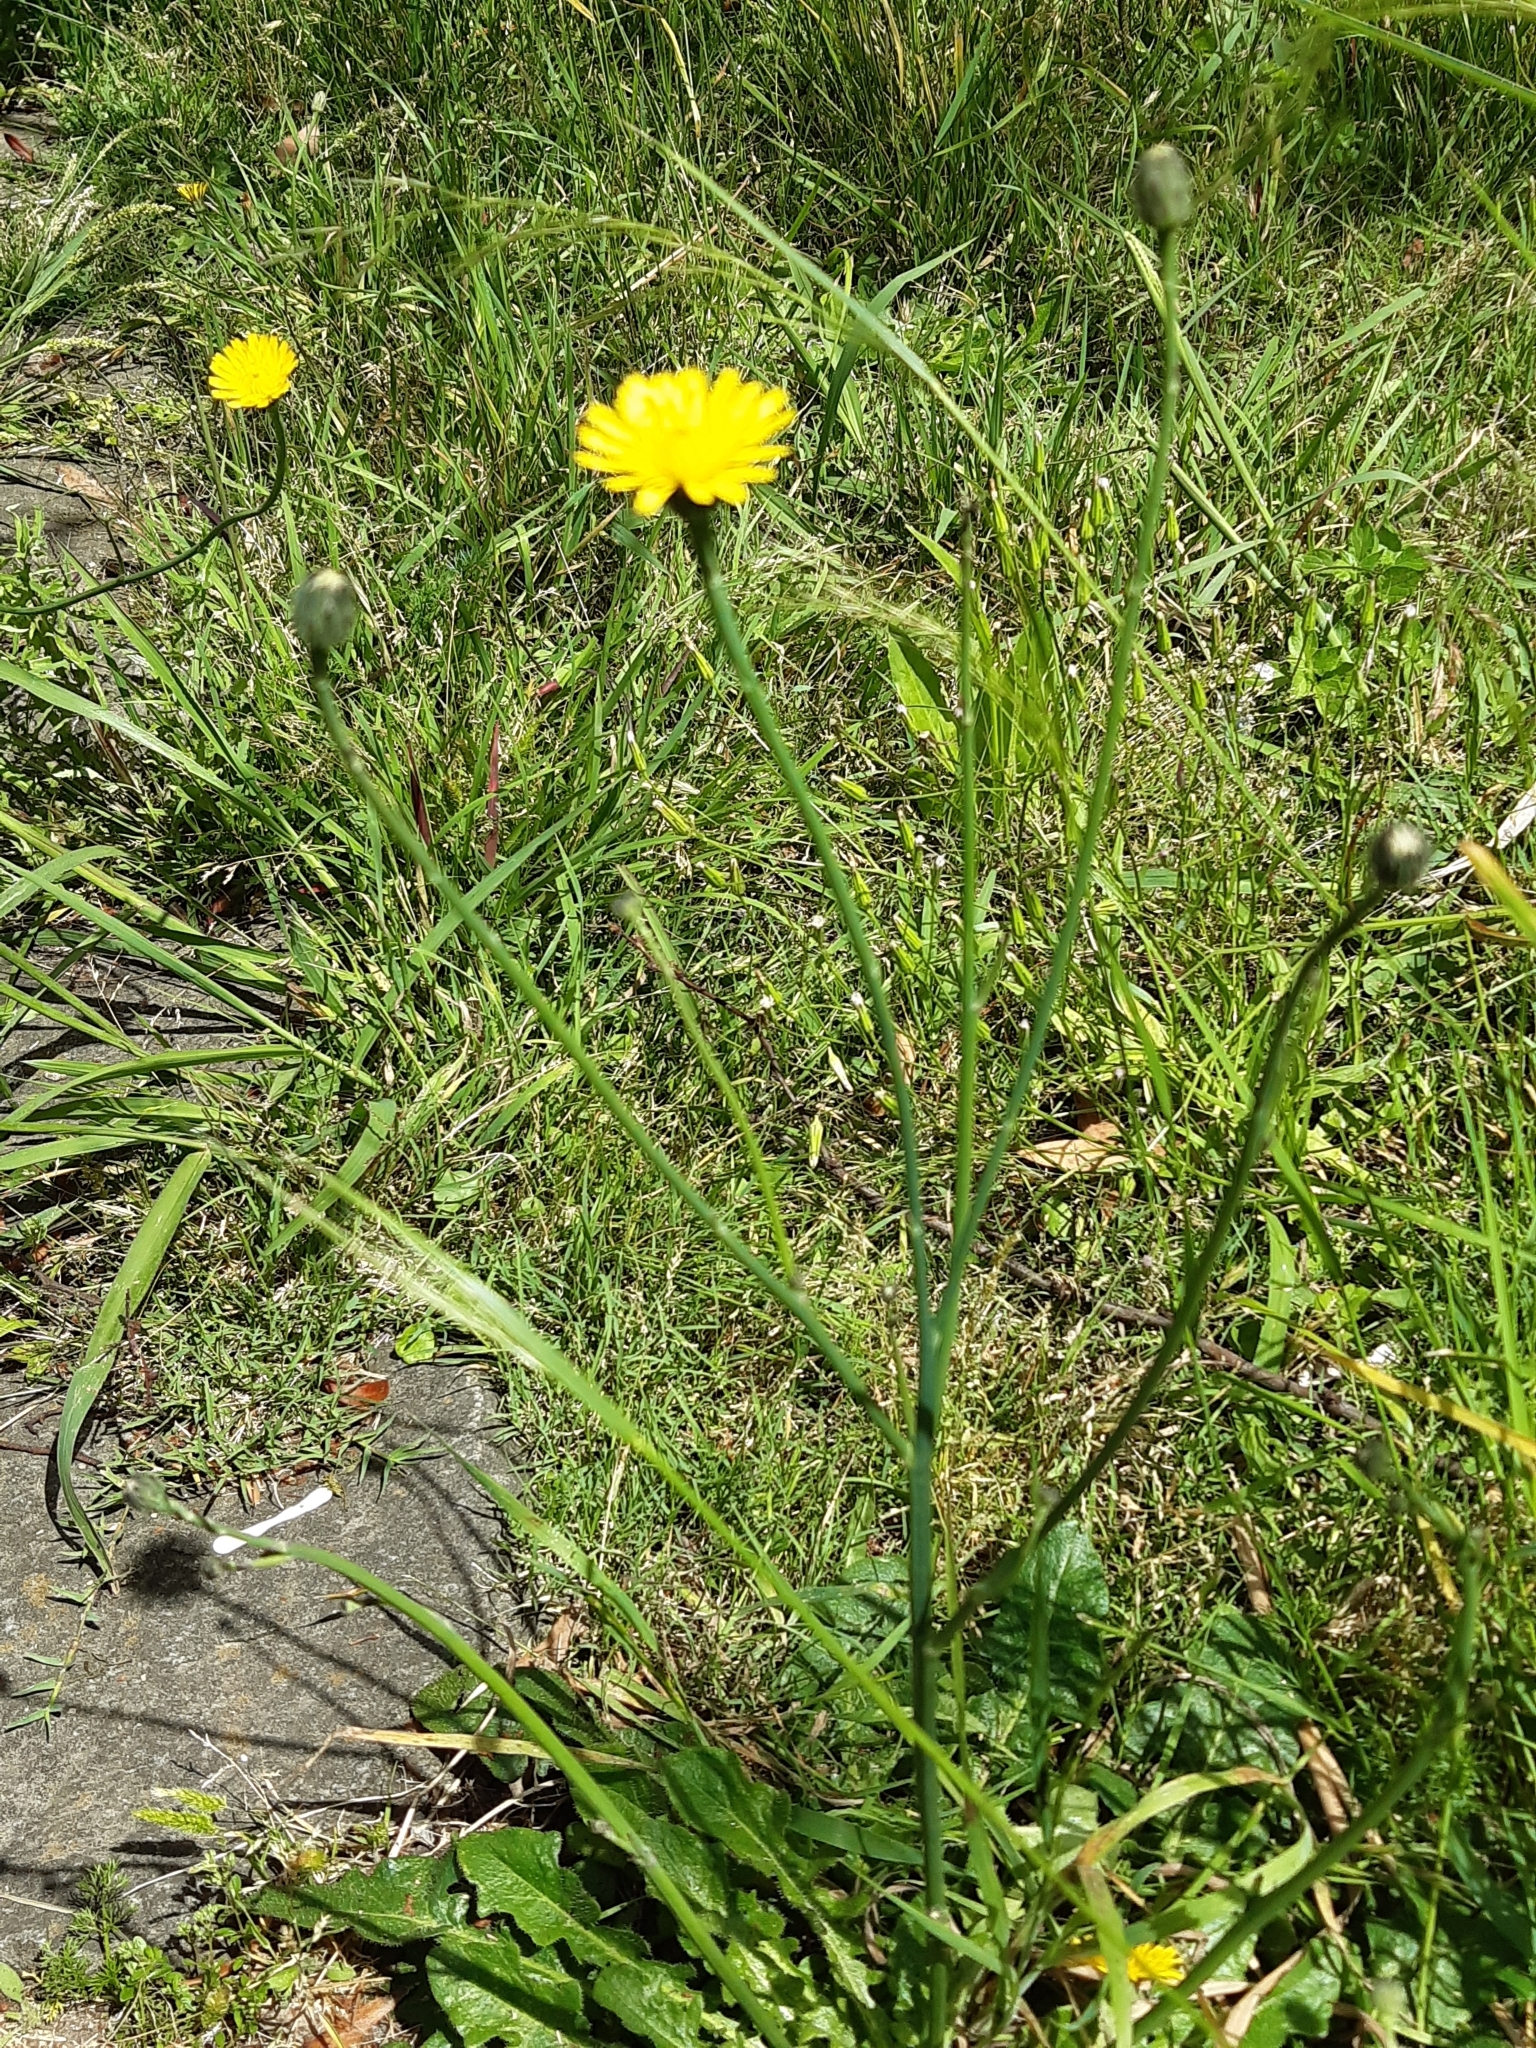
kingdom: Plantae
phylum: Tracheophyta
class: Magnoliopsida
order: Asterales
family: Asteraceae
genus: Hypochaeris
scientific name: Hypochaeris radicata
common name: Flatweed
